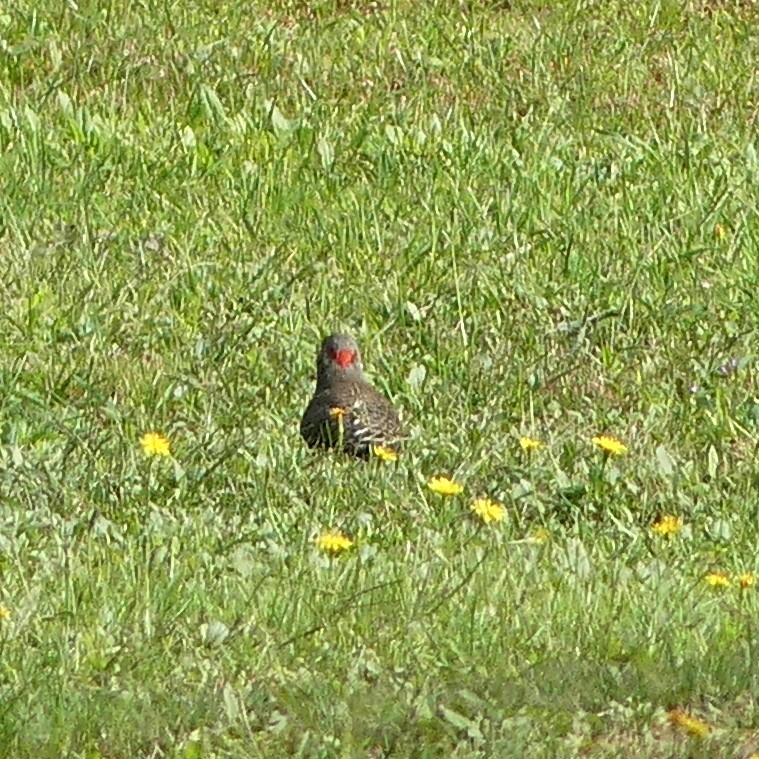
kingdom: Animalia
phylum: Chordata
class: Aves
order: Piciformes
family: Picidae
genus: Colaptes
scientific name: Colaptes auratus
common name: Northern flicker
